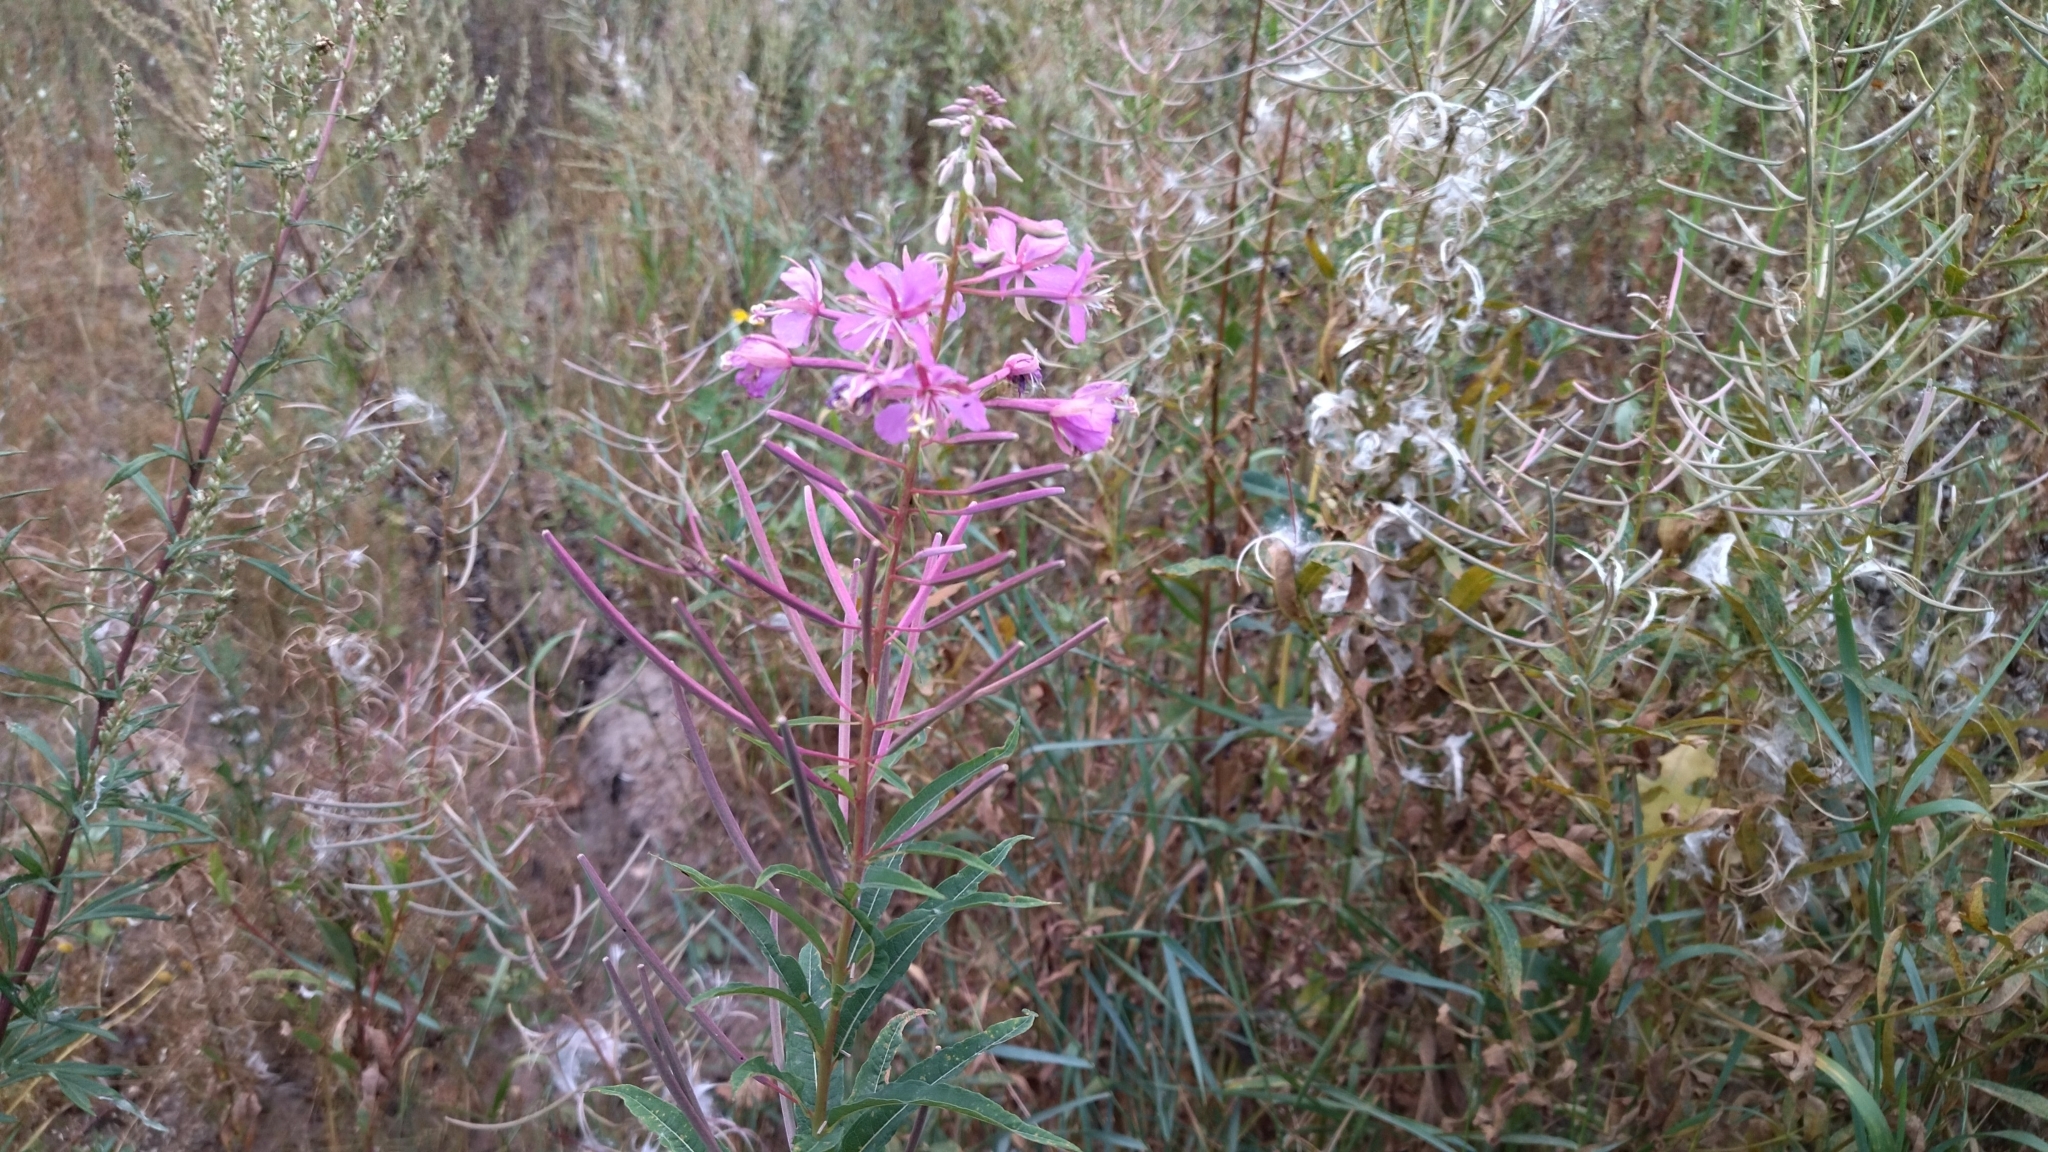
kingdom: Plantae
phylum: Tracheophyta
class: Magnoliopsida
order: Myrtales
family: Onagraceae
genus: Chamaenerion
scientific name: Chamaenerion angustifolium
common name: Fireweed
